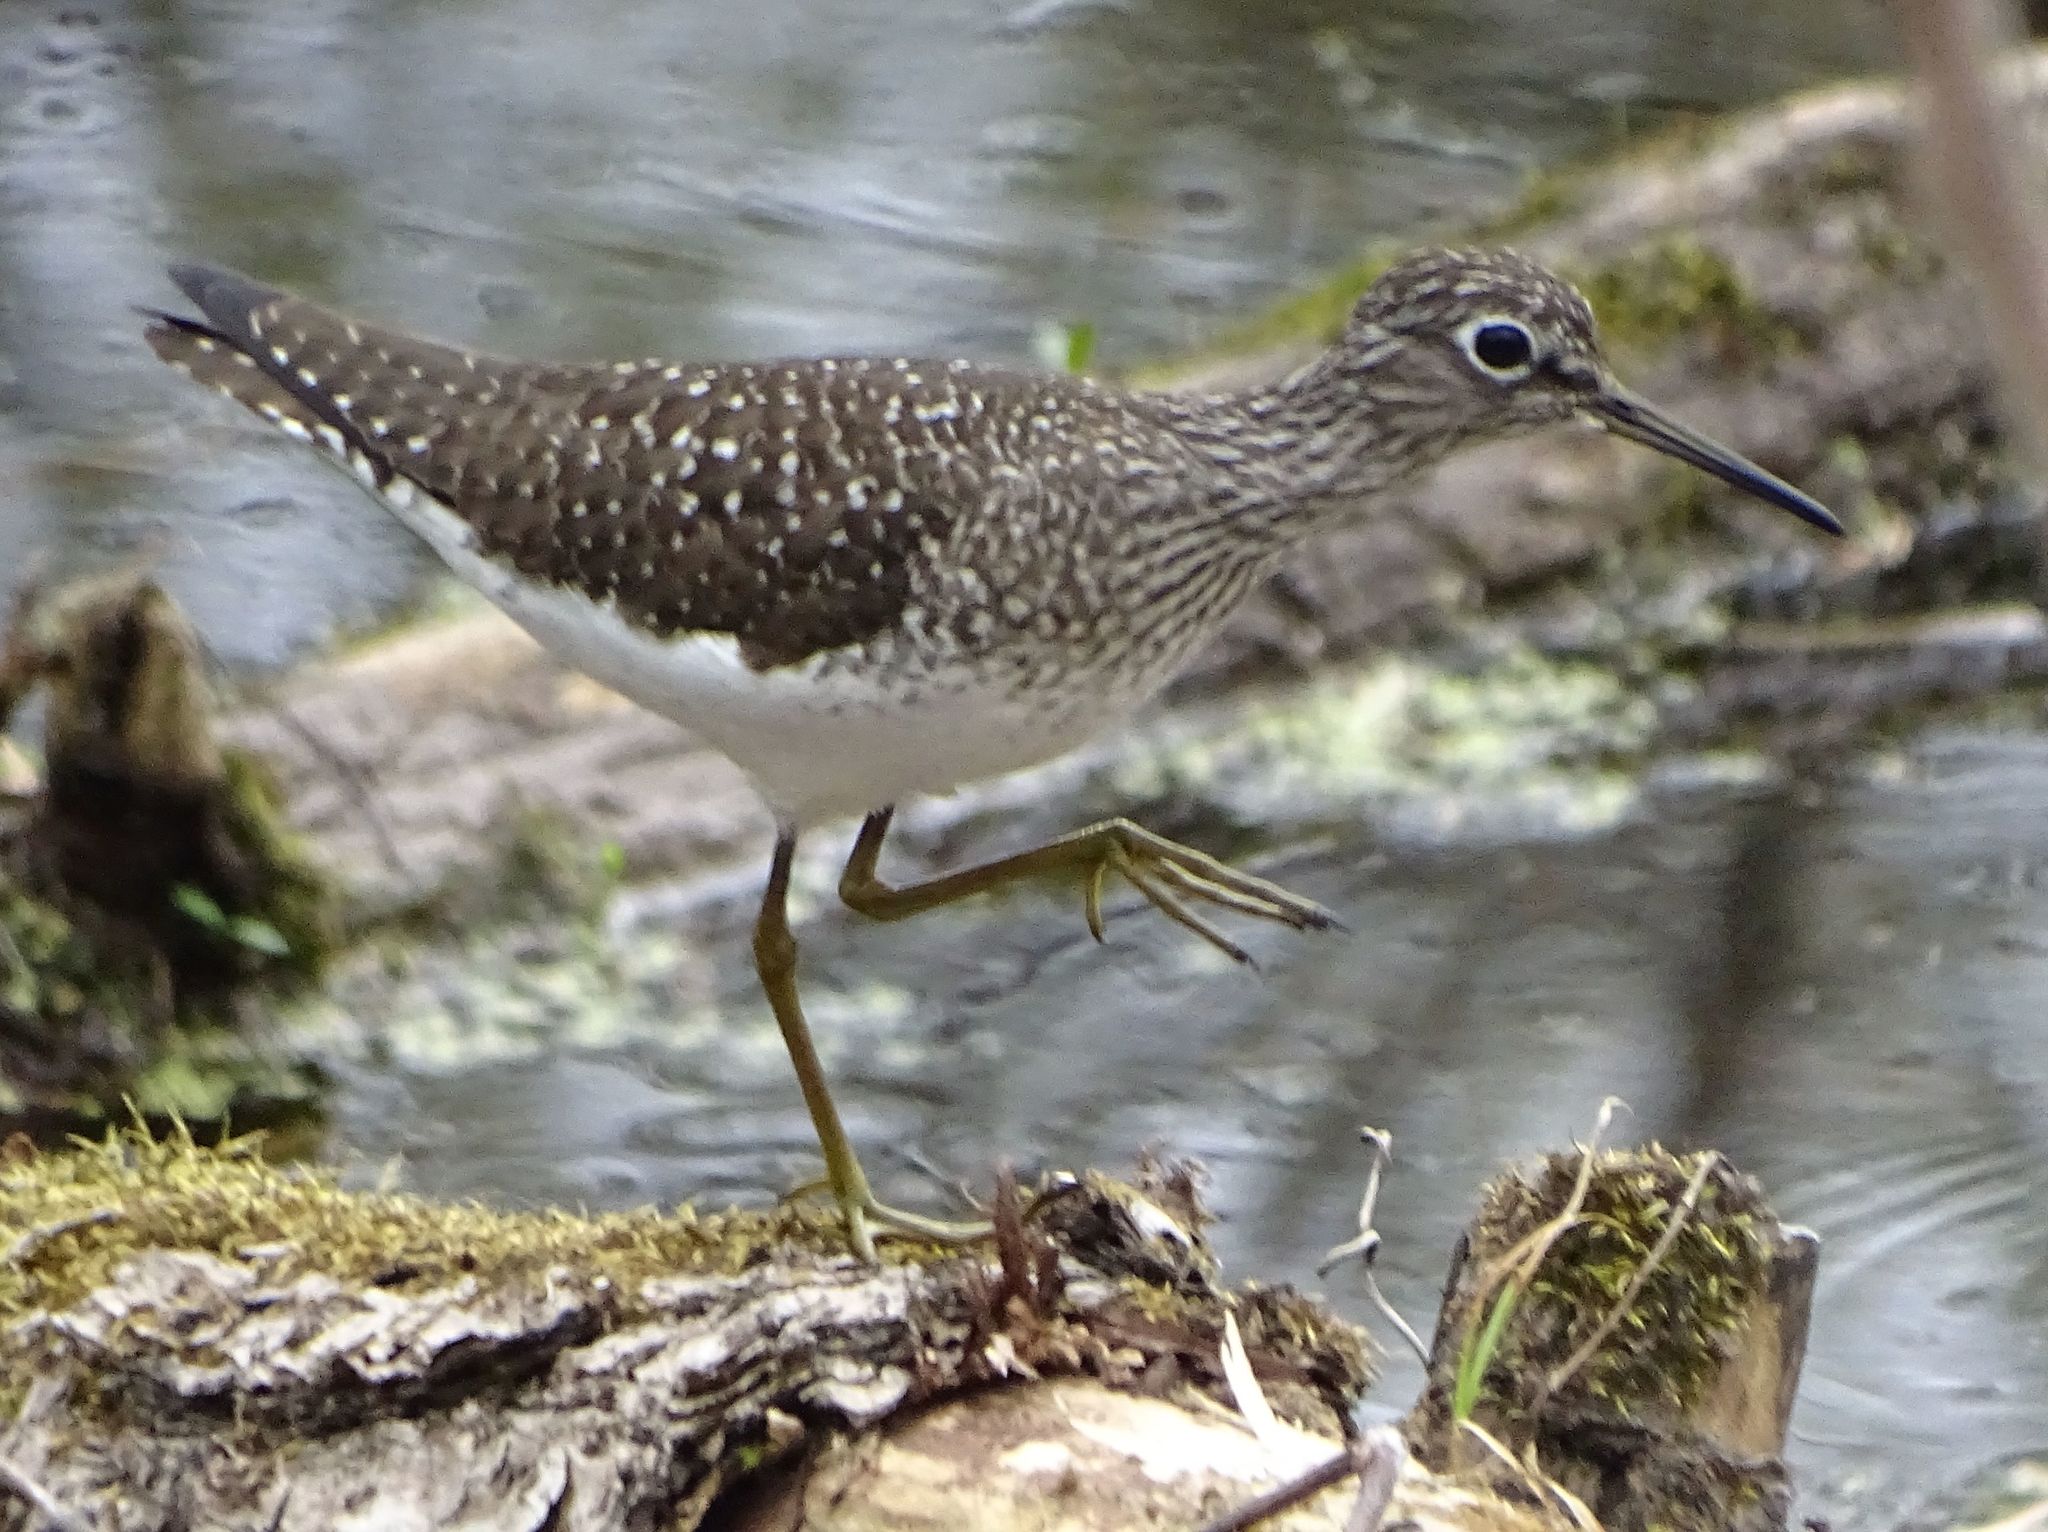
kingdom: Animalia
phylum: Chordata
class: Aves
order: Charadriiformes
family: Scolopacidae
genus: Tringa
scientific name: Tringa solitaria
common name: Solitary sandpiper
